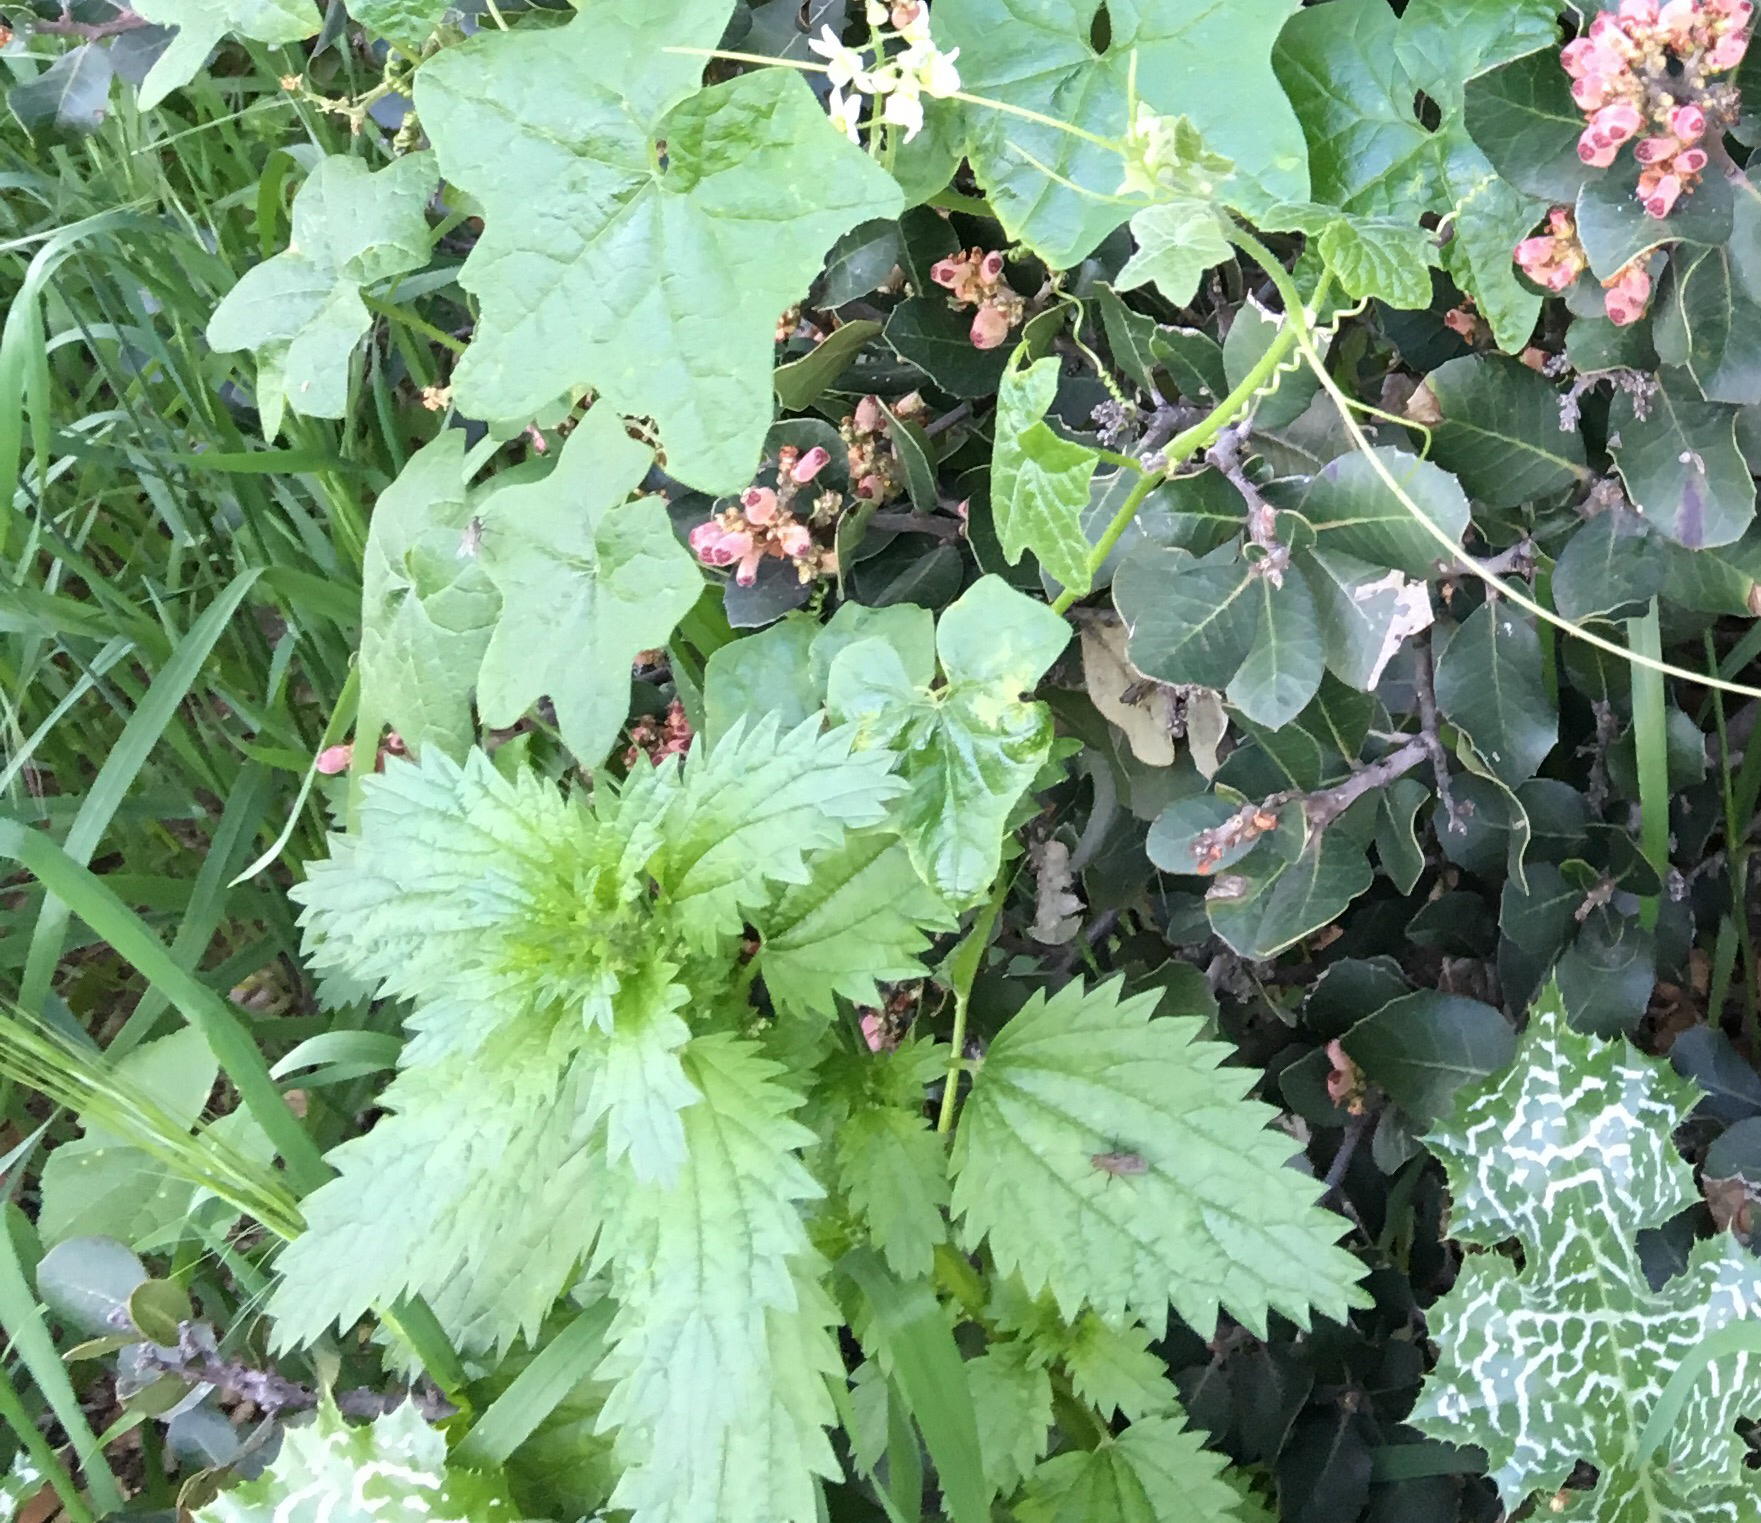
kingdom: Plantae
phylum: Tracheophyta
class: Magnoliopsida
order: Rosales
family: Urticaceae
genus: Urtica
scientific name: Urtica urens
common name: Dwarf nettle
